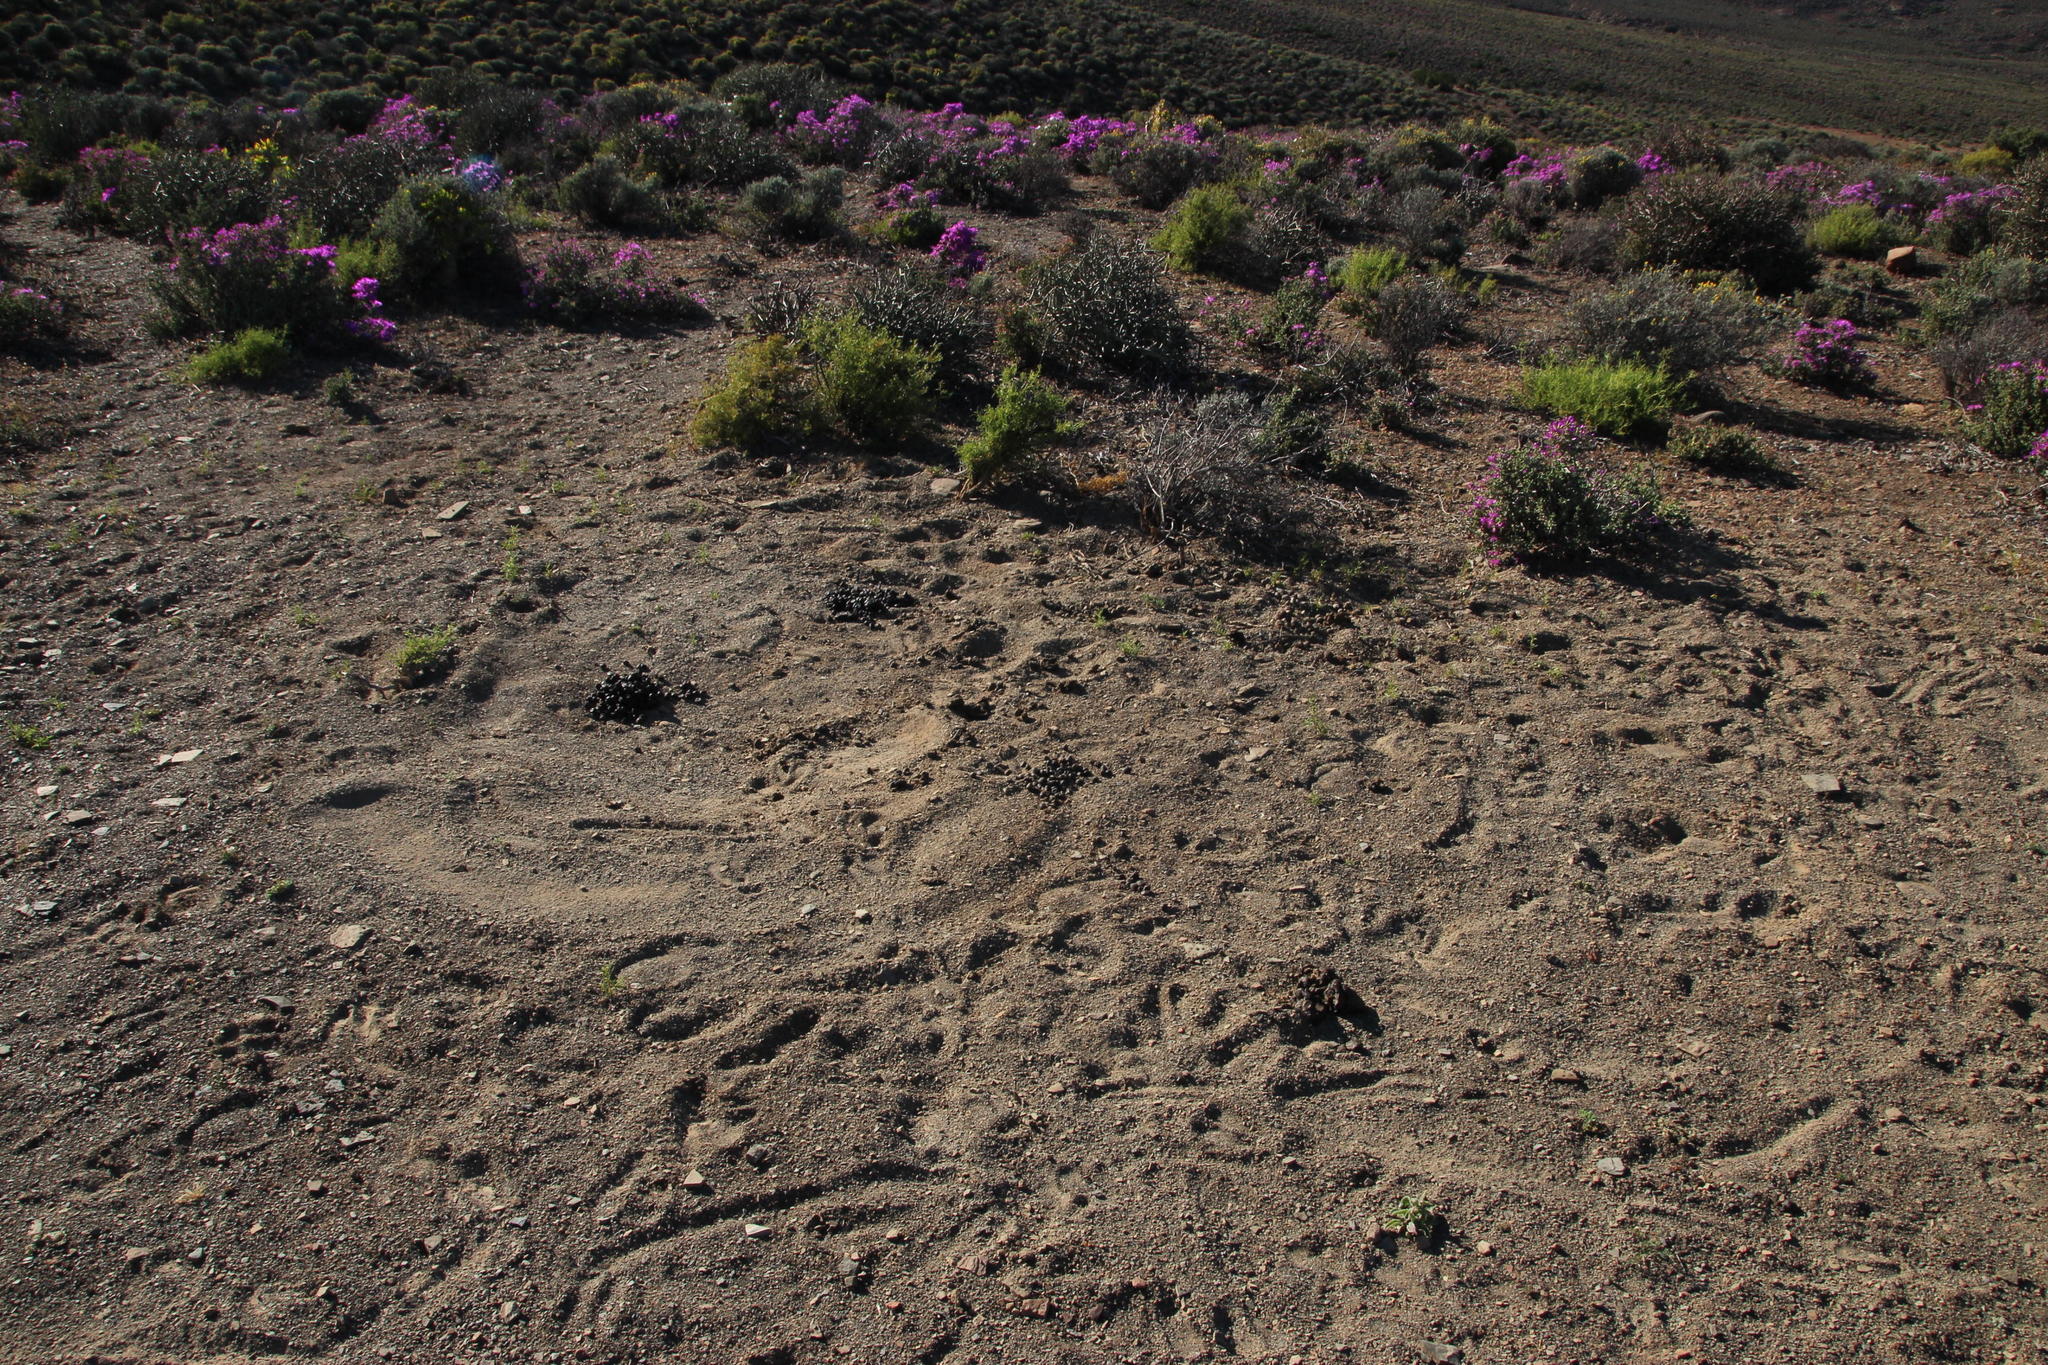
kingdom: Animalia
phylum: Chordata
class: Mammalia
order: Artiodactyla
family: Bovidae
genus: Antidorcas
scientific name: Antidorcas marsupialis
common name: Springbok
